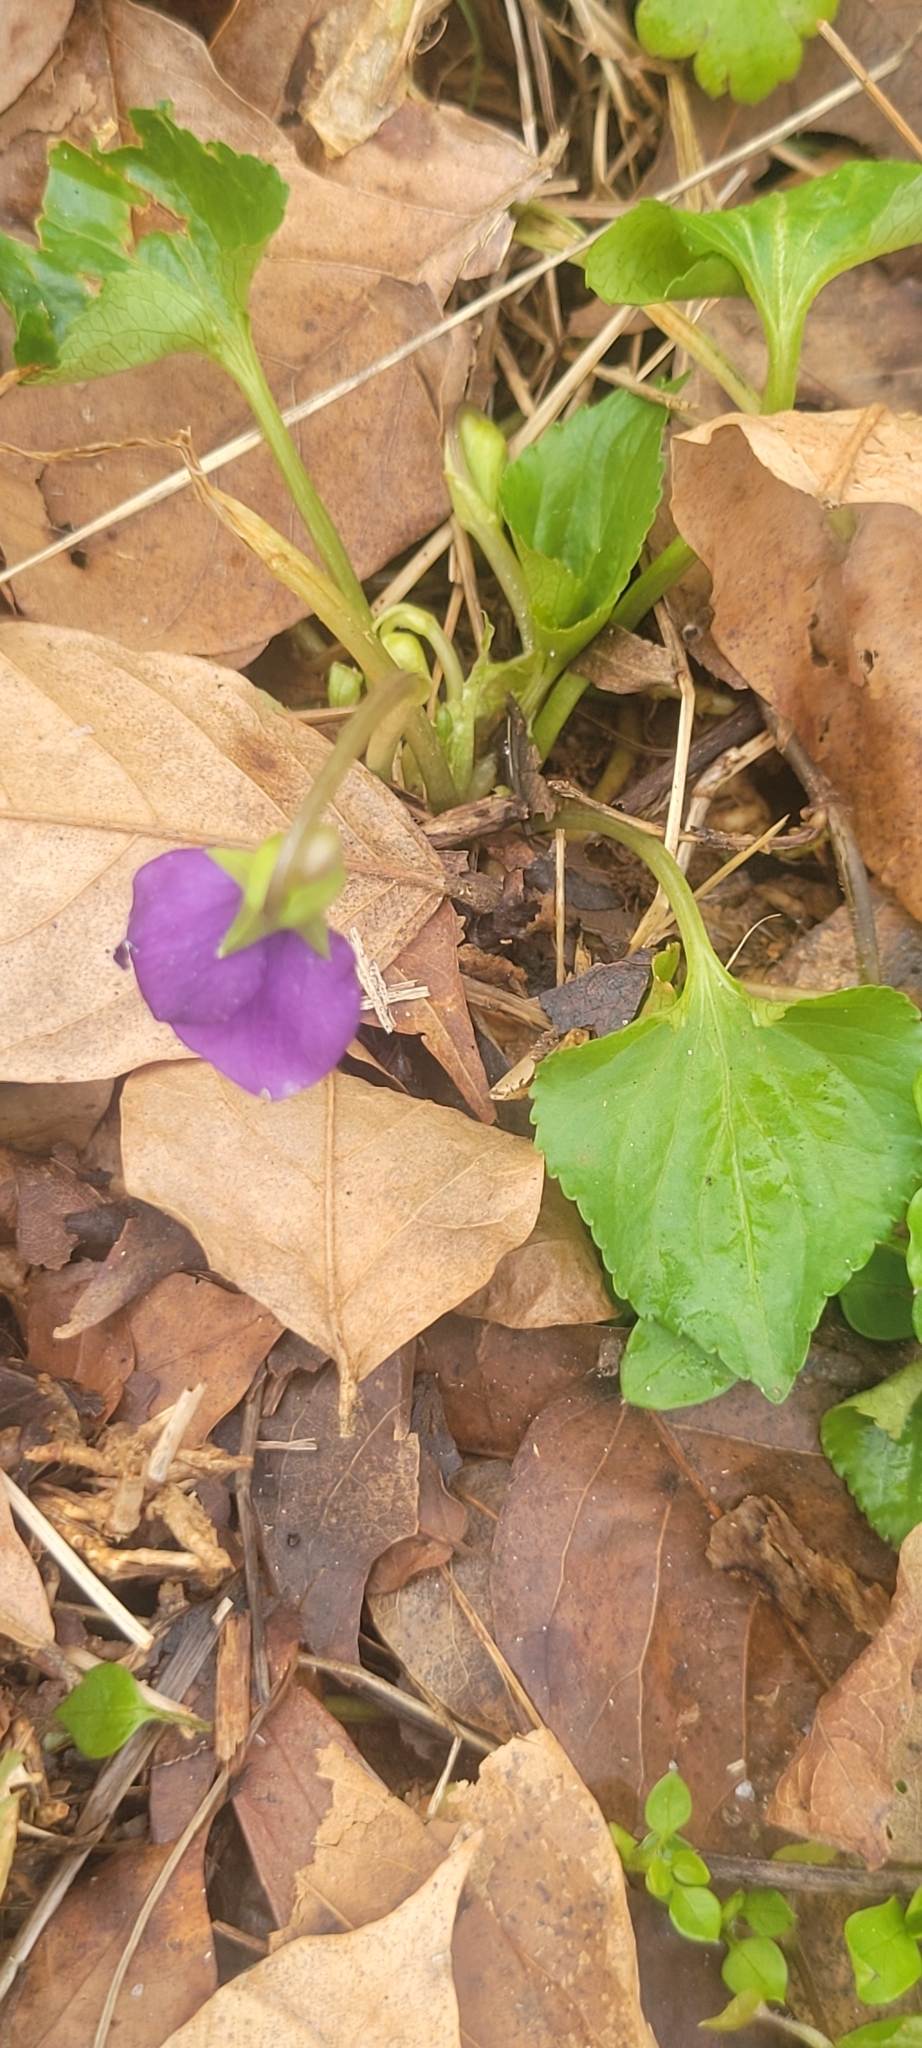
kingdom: Plantae
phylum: Tracheophyta
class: Magnoliopsida
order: Malpighiales
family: Violaceae
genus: Viola
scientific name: Viola sororia
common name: Dooryard violet
